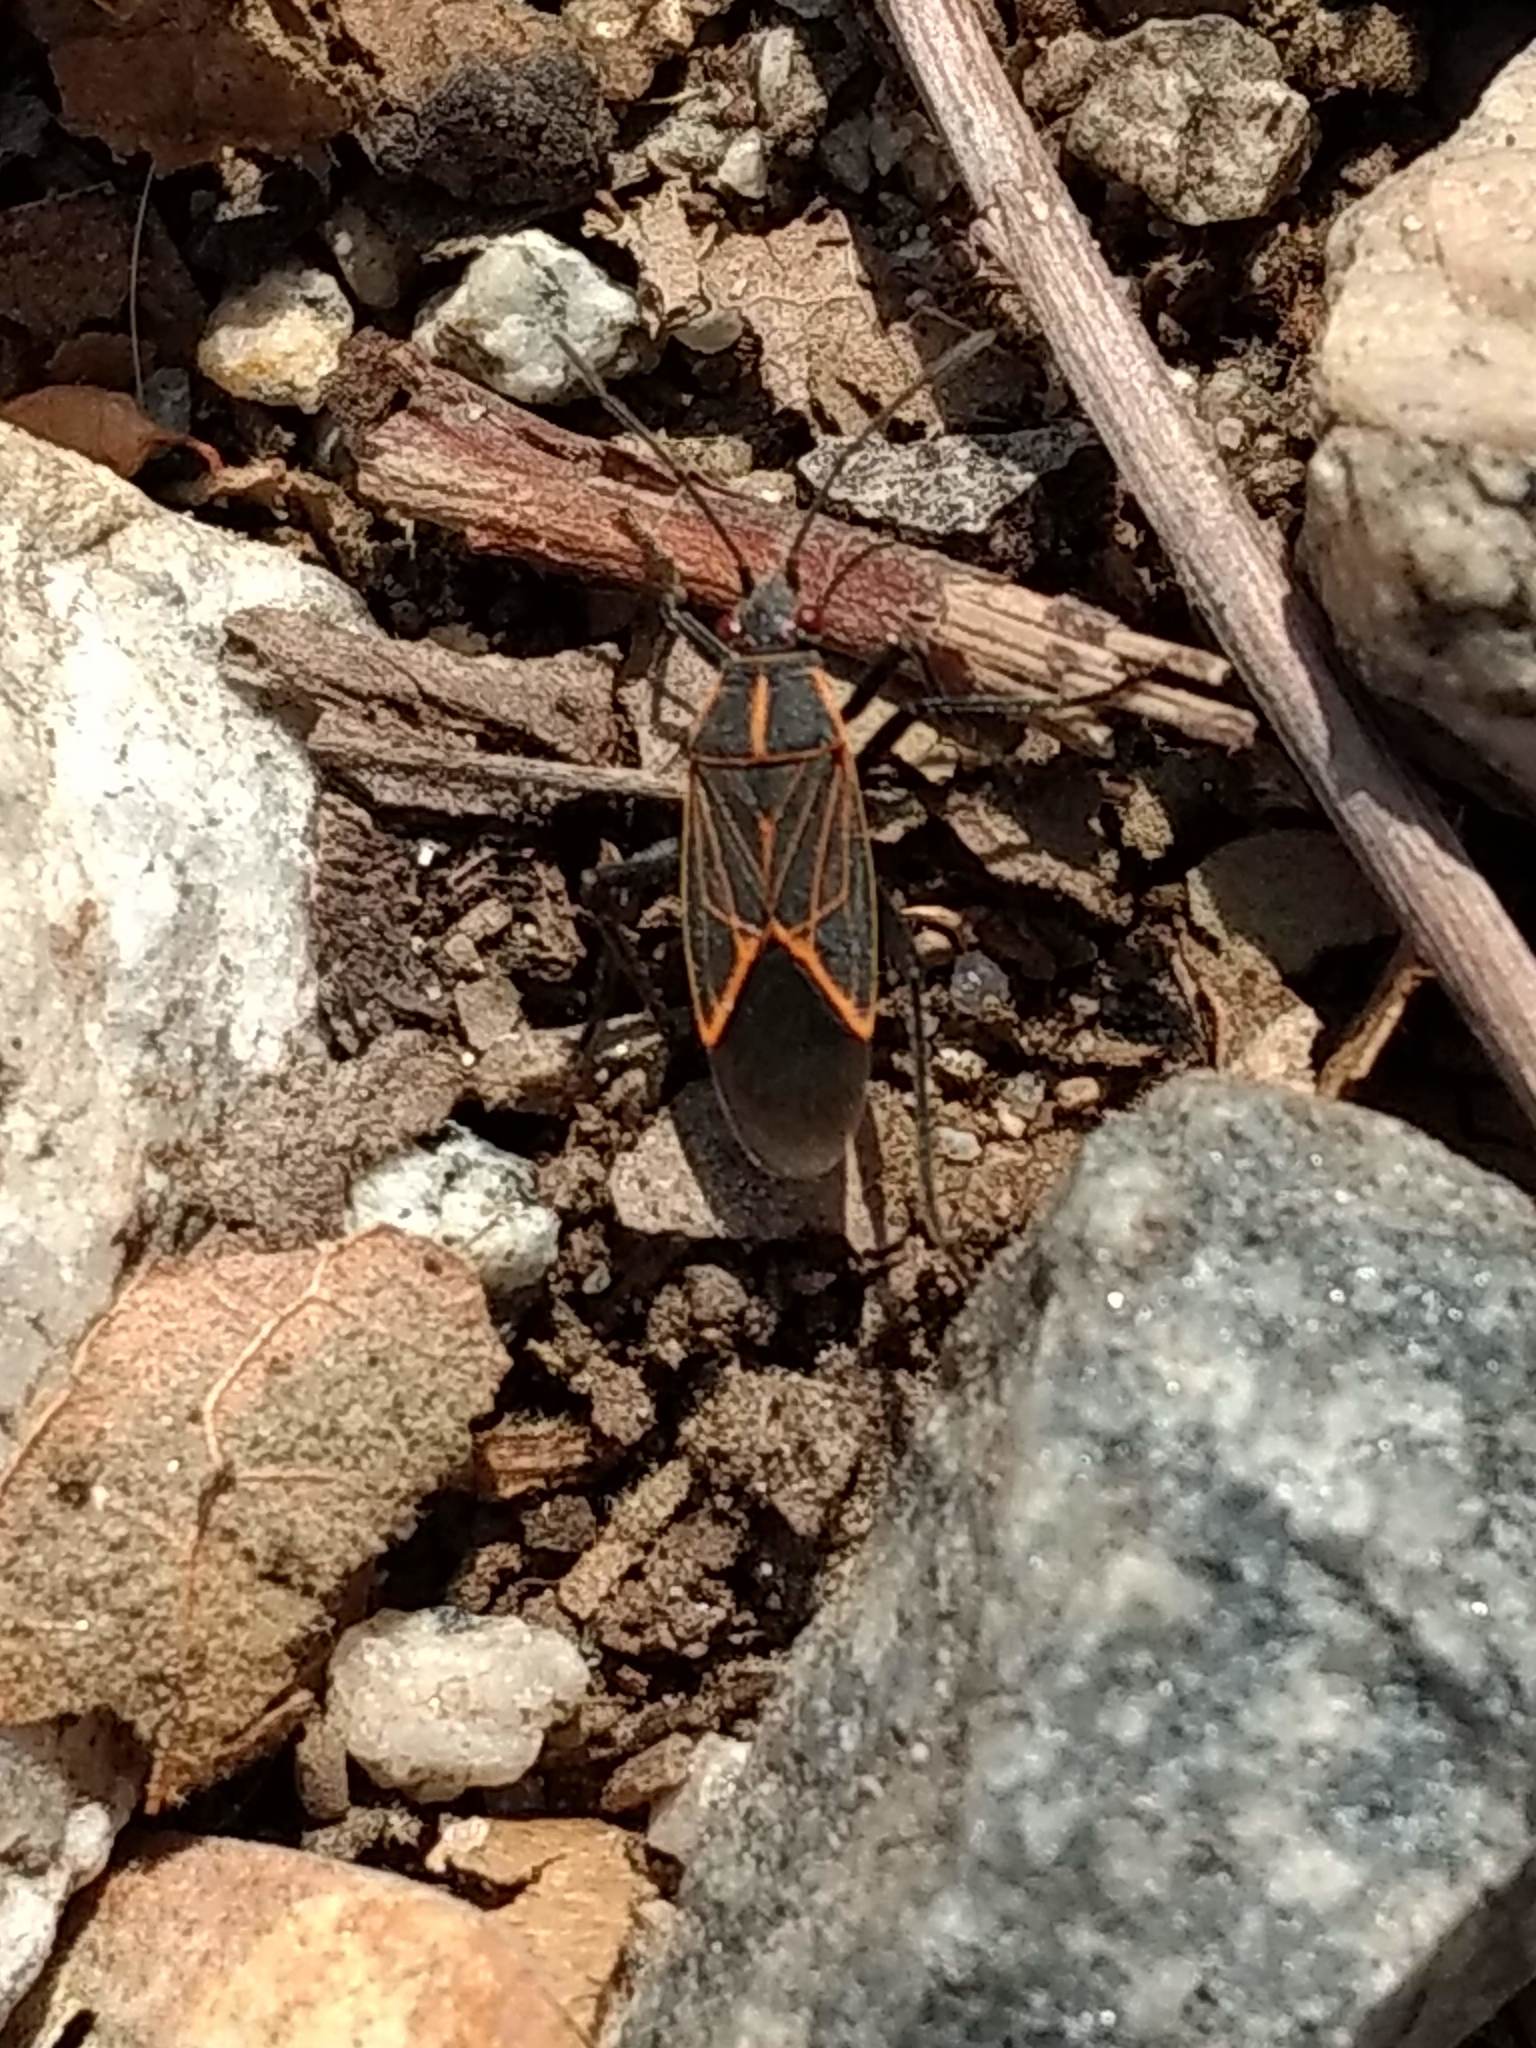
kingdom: Animalia
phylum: Arthropoda
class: Insecta
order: Hemiptera
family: Rhopalidae
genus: Boisea
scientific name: Boisea rubrolineata
